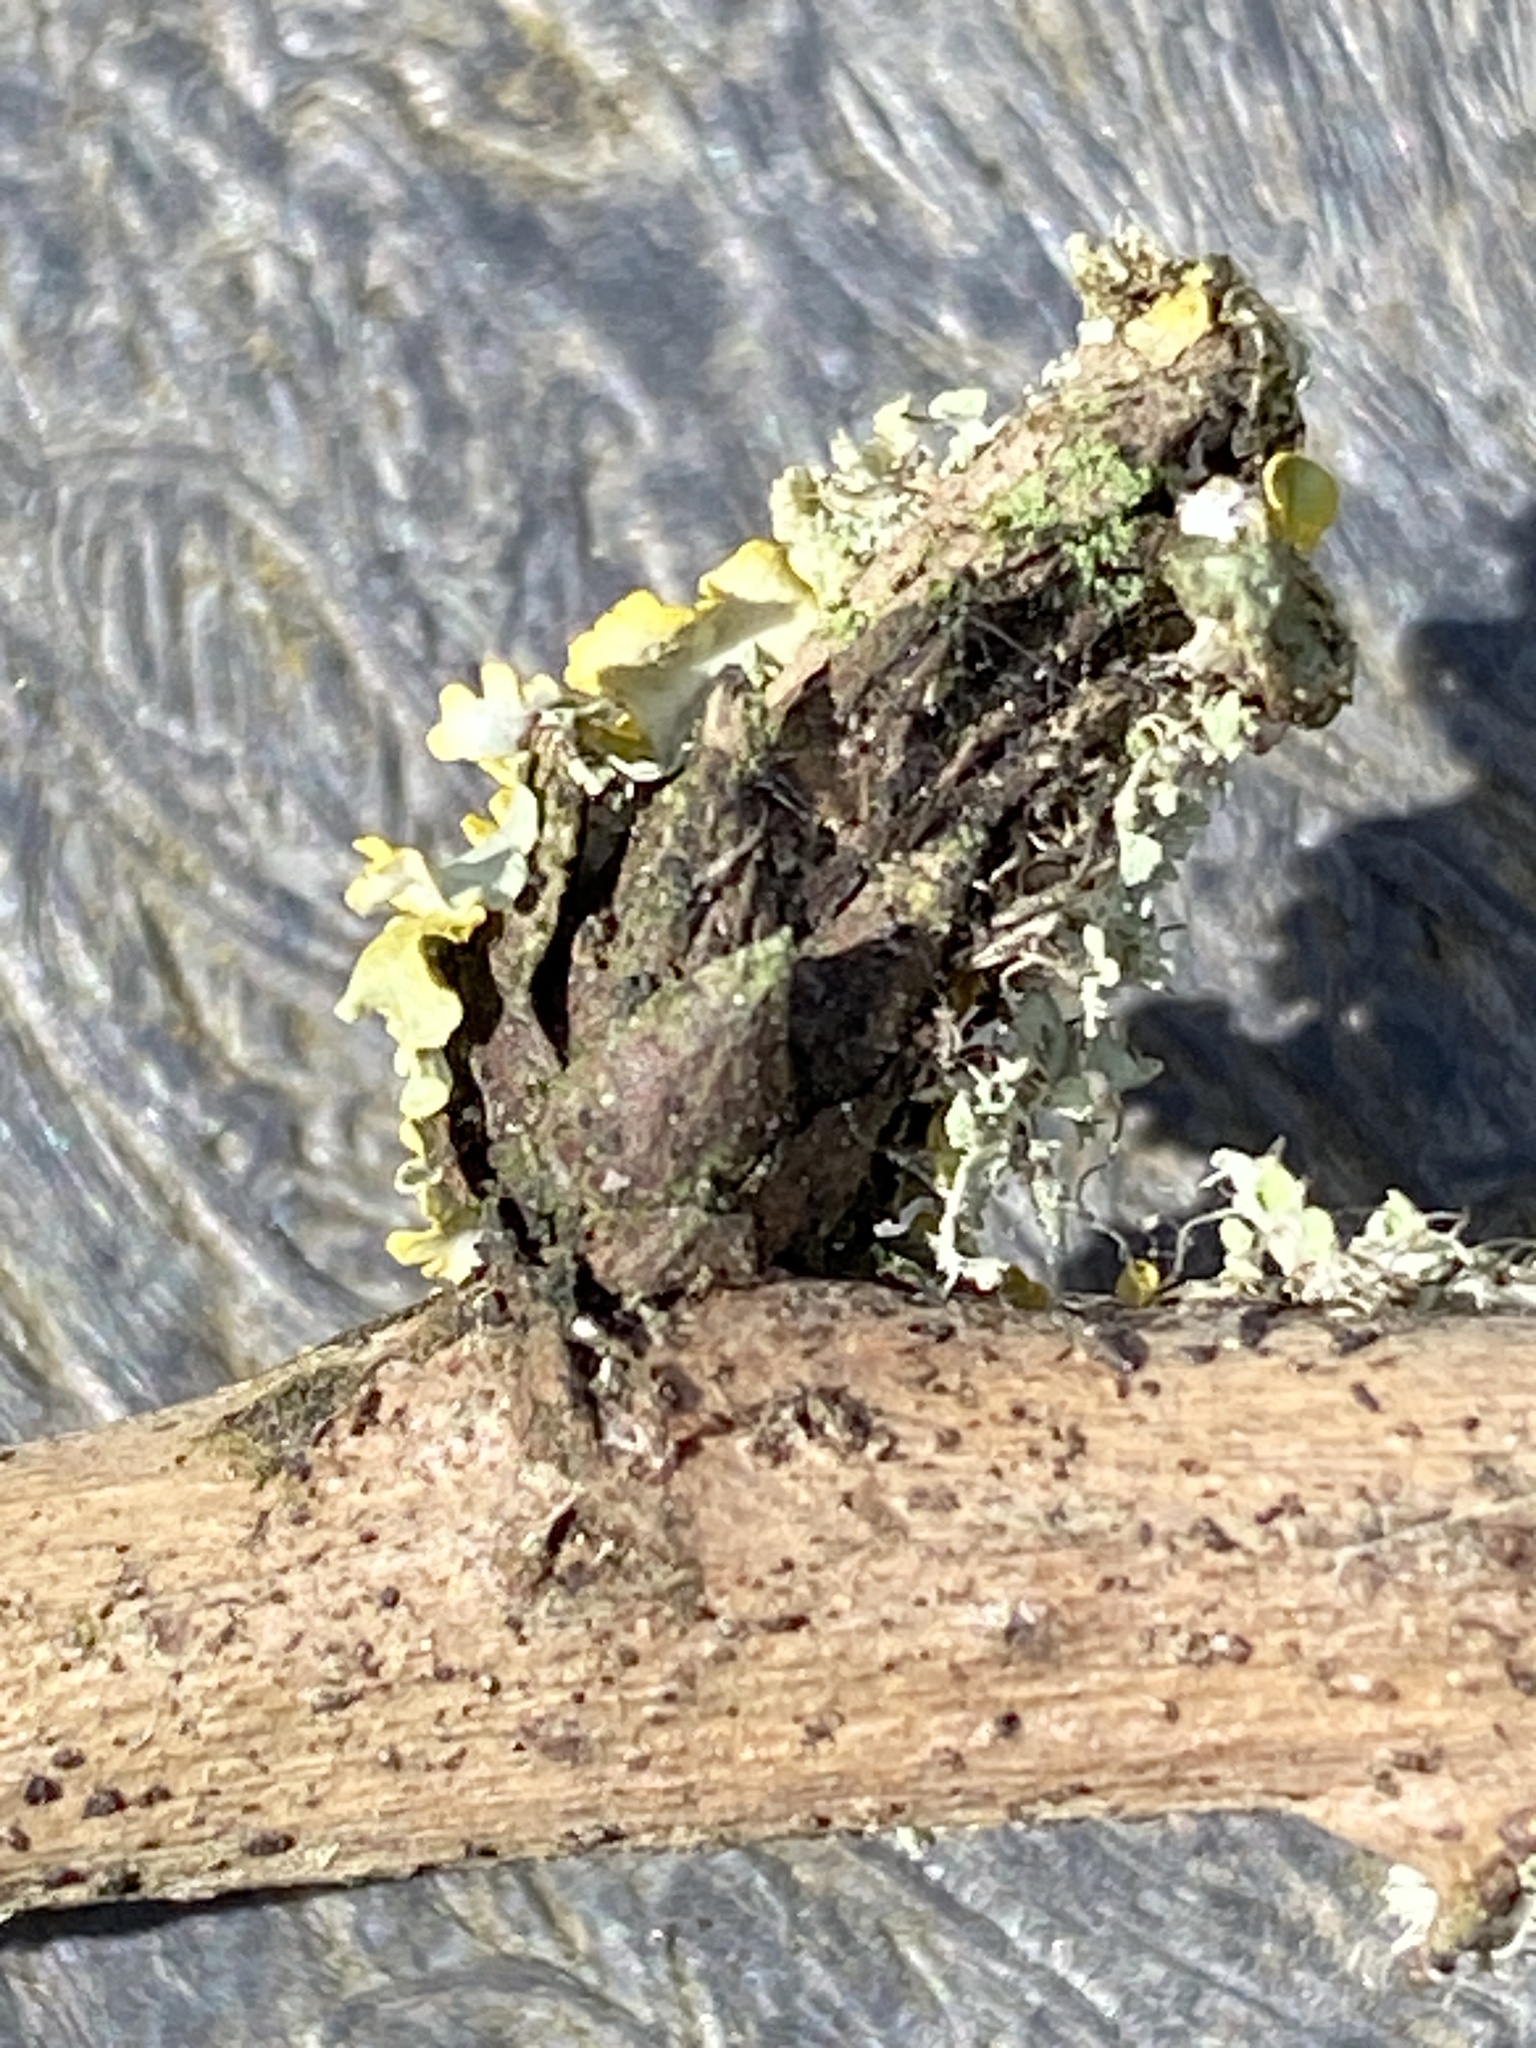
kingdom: Fungi
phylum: Ascomycota
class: Lecanoromycetes
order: Teloschistales
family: Teloschistaceae
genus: Xanthoria
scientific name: Xanthoria parietina
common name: Common orange lichen
